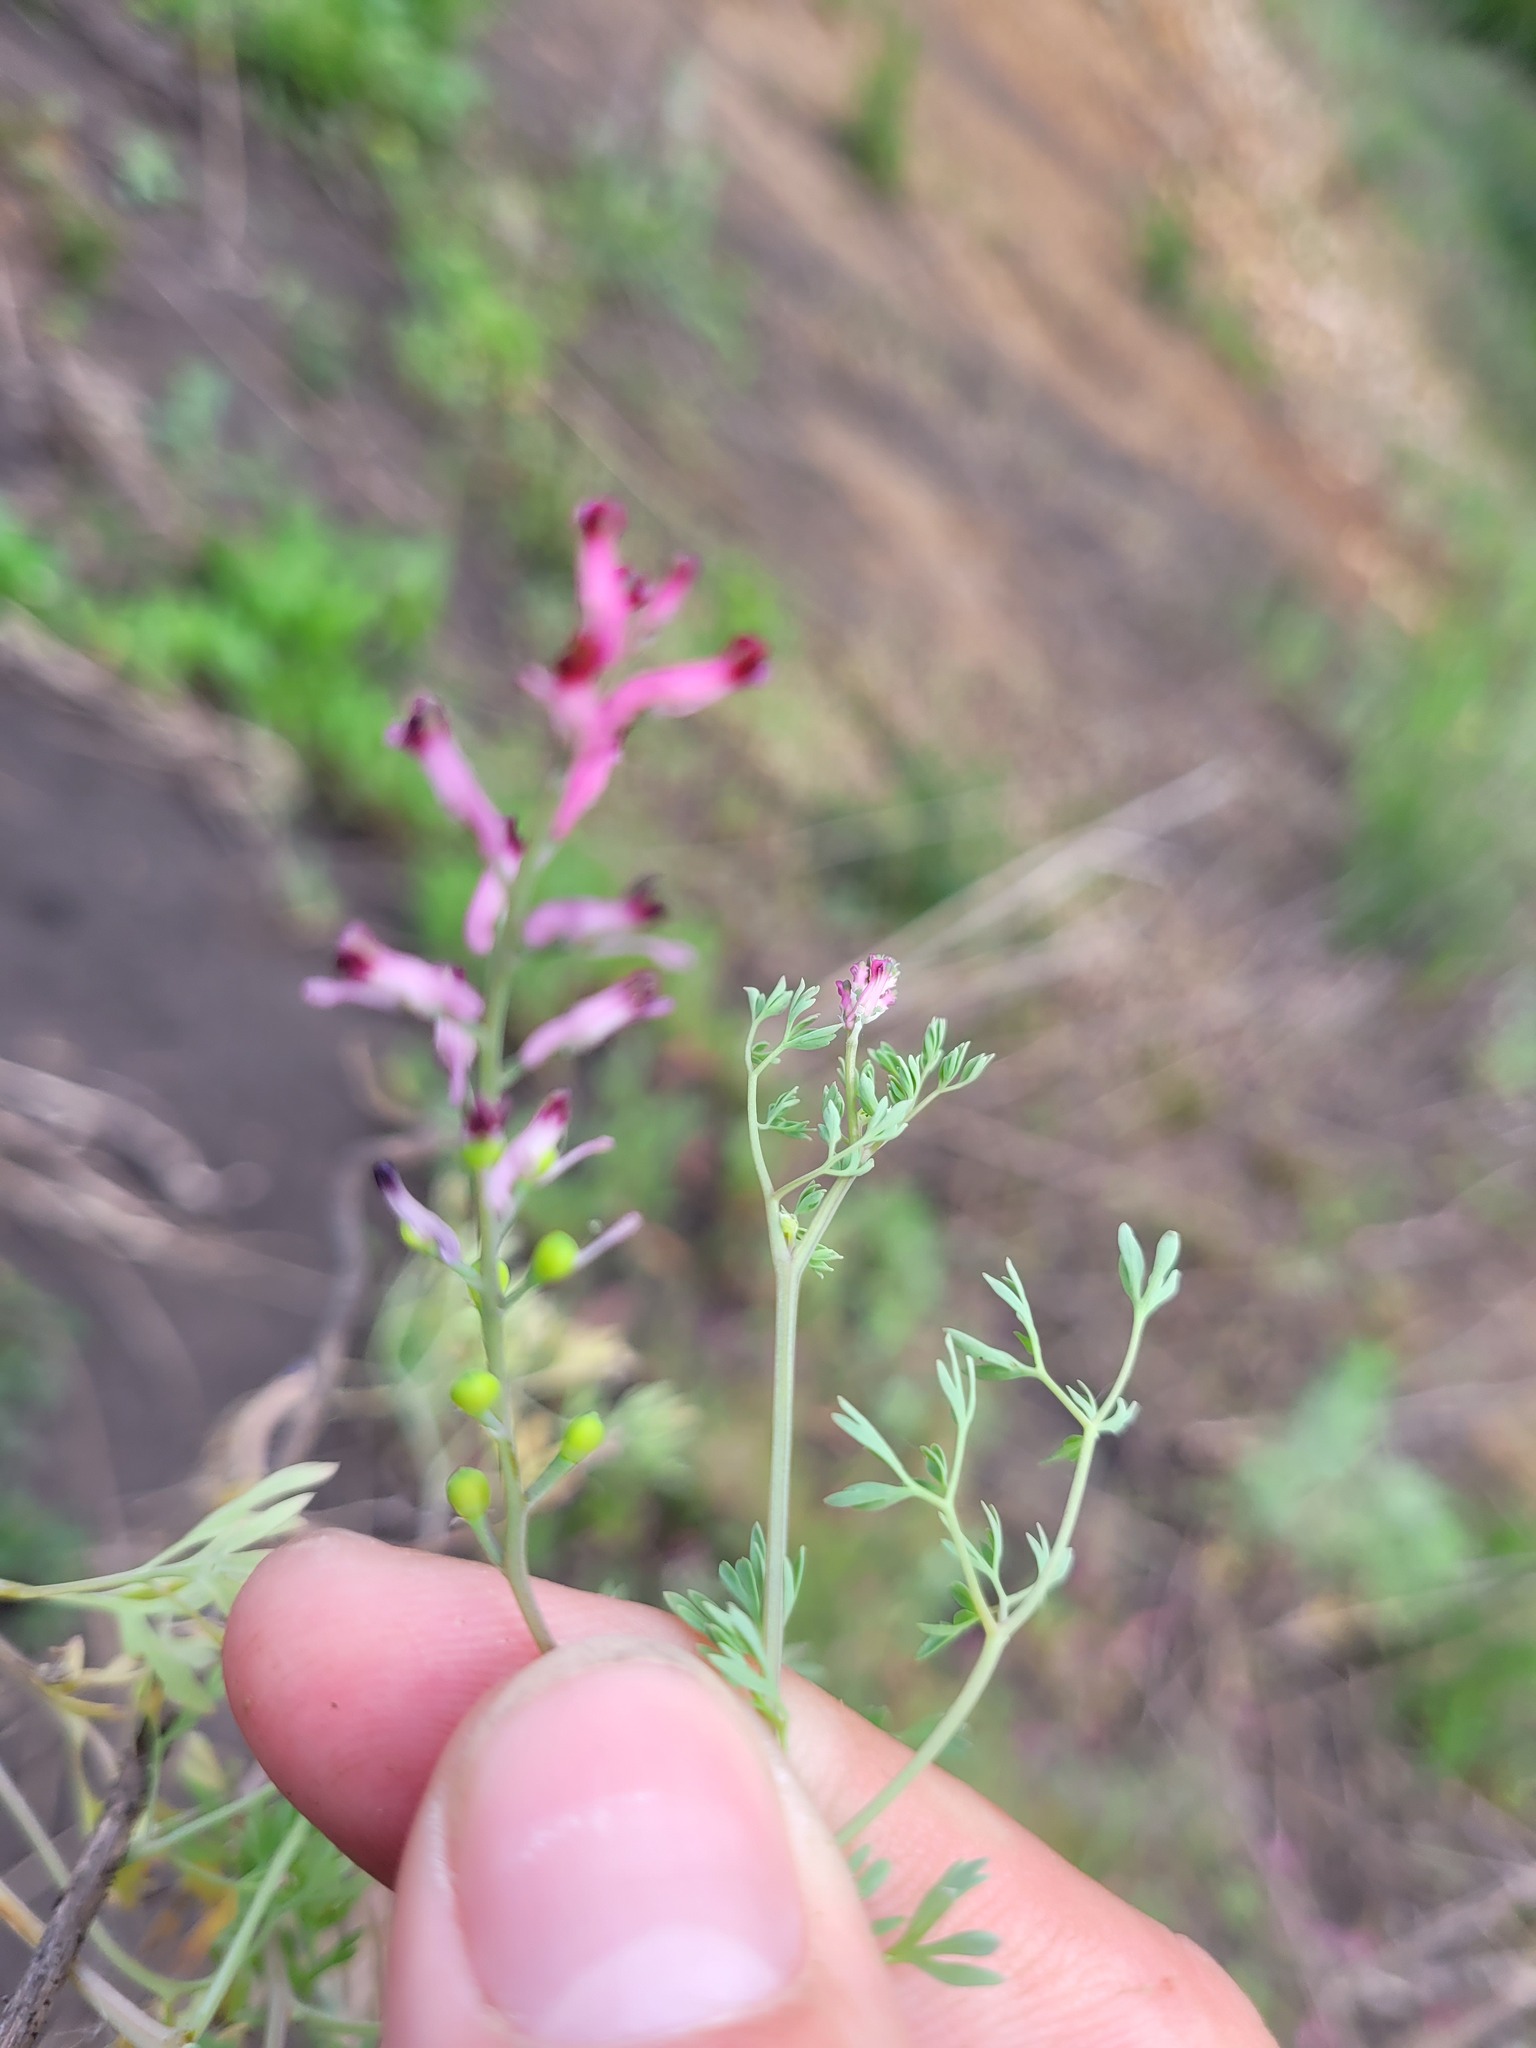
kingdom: Plantae
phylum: Tracheophyta
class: Magnoliopsida
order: Ranunculales
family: Papaveraceae
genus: Fumaria
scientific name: Fumaria schleicheri
